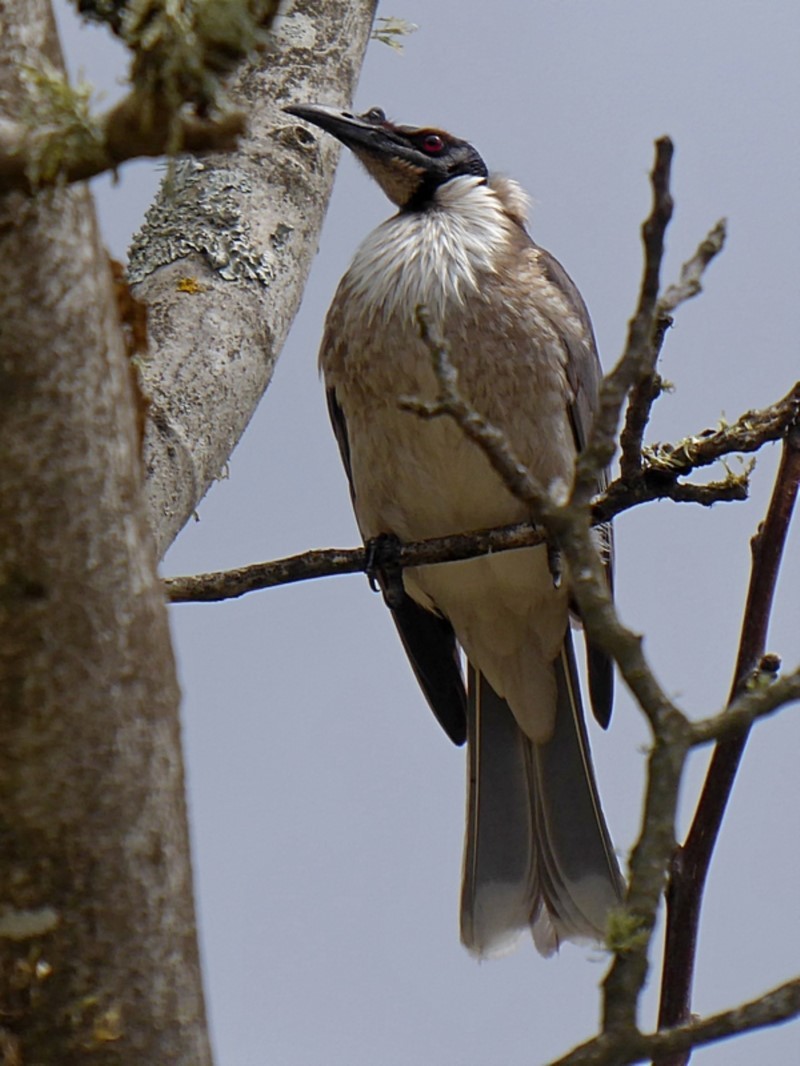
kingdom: Animalia
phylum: Chordata
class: Aves
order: Passeriformes
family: Meliphagidae
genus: Philemon
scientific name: Philemon corniculatus
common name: Noisy friarbird
